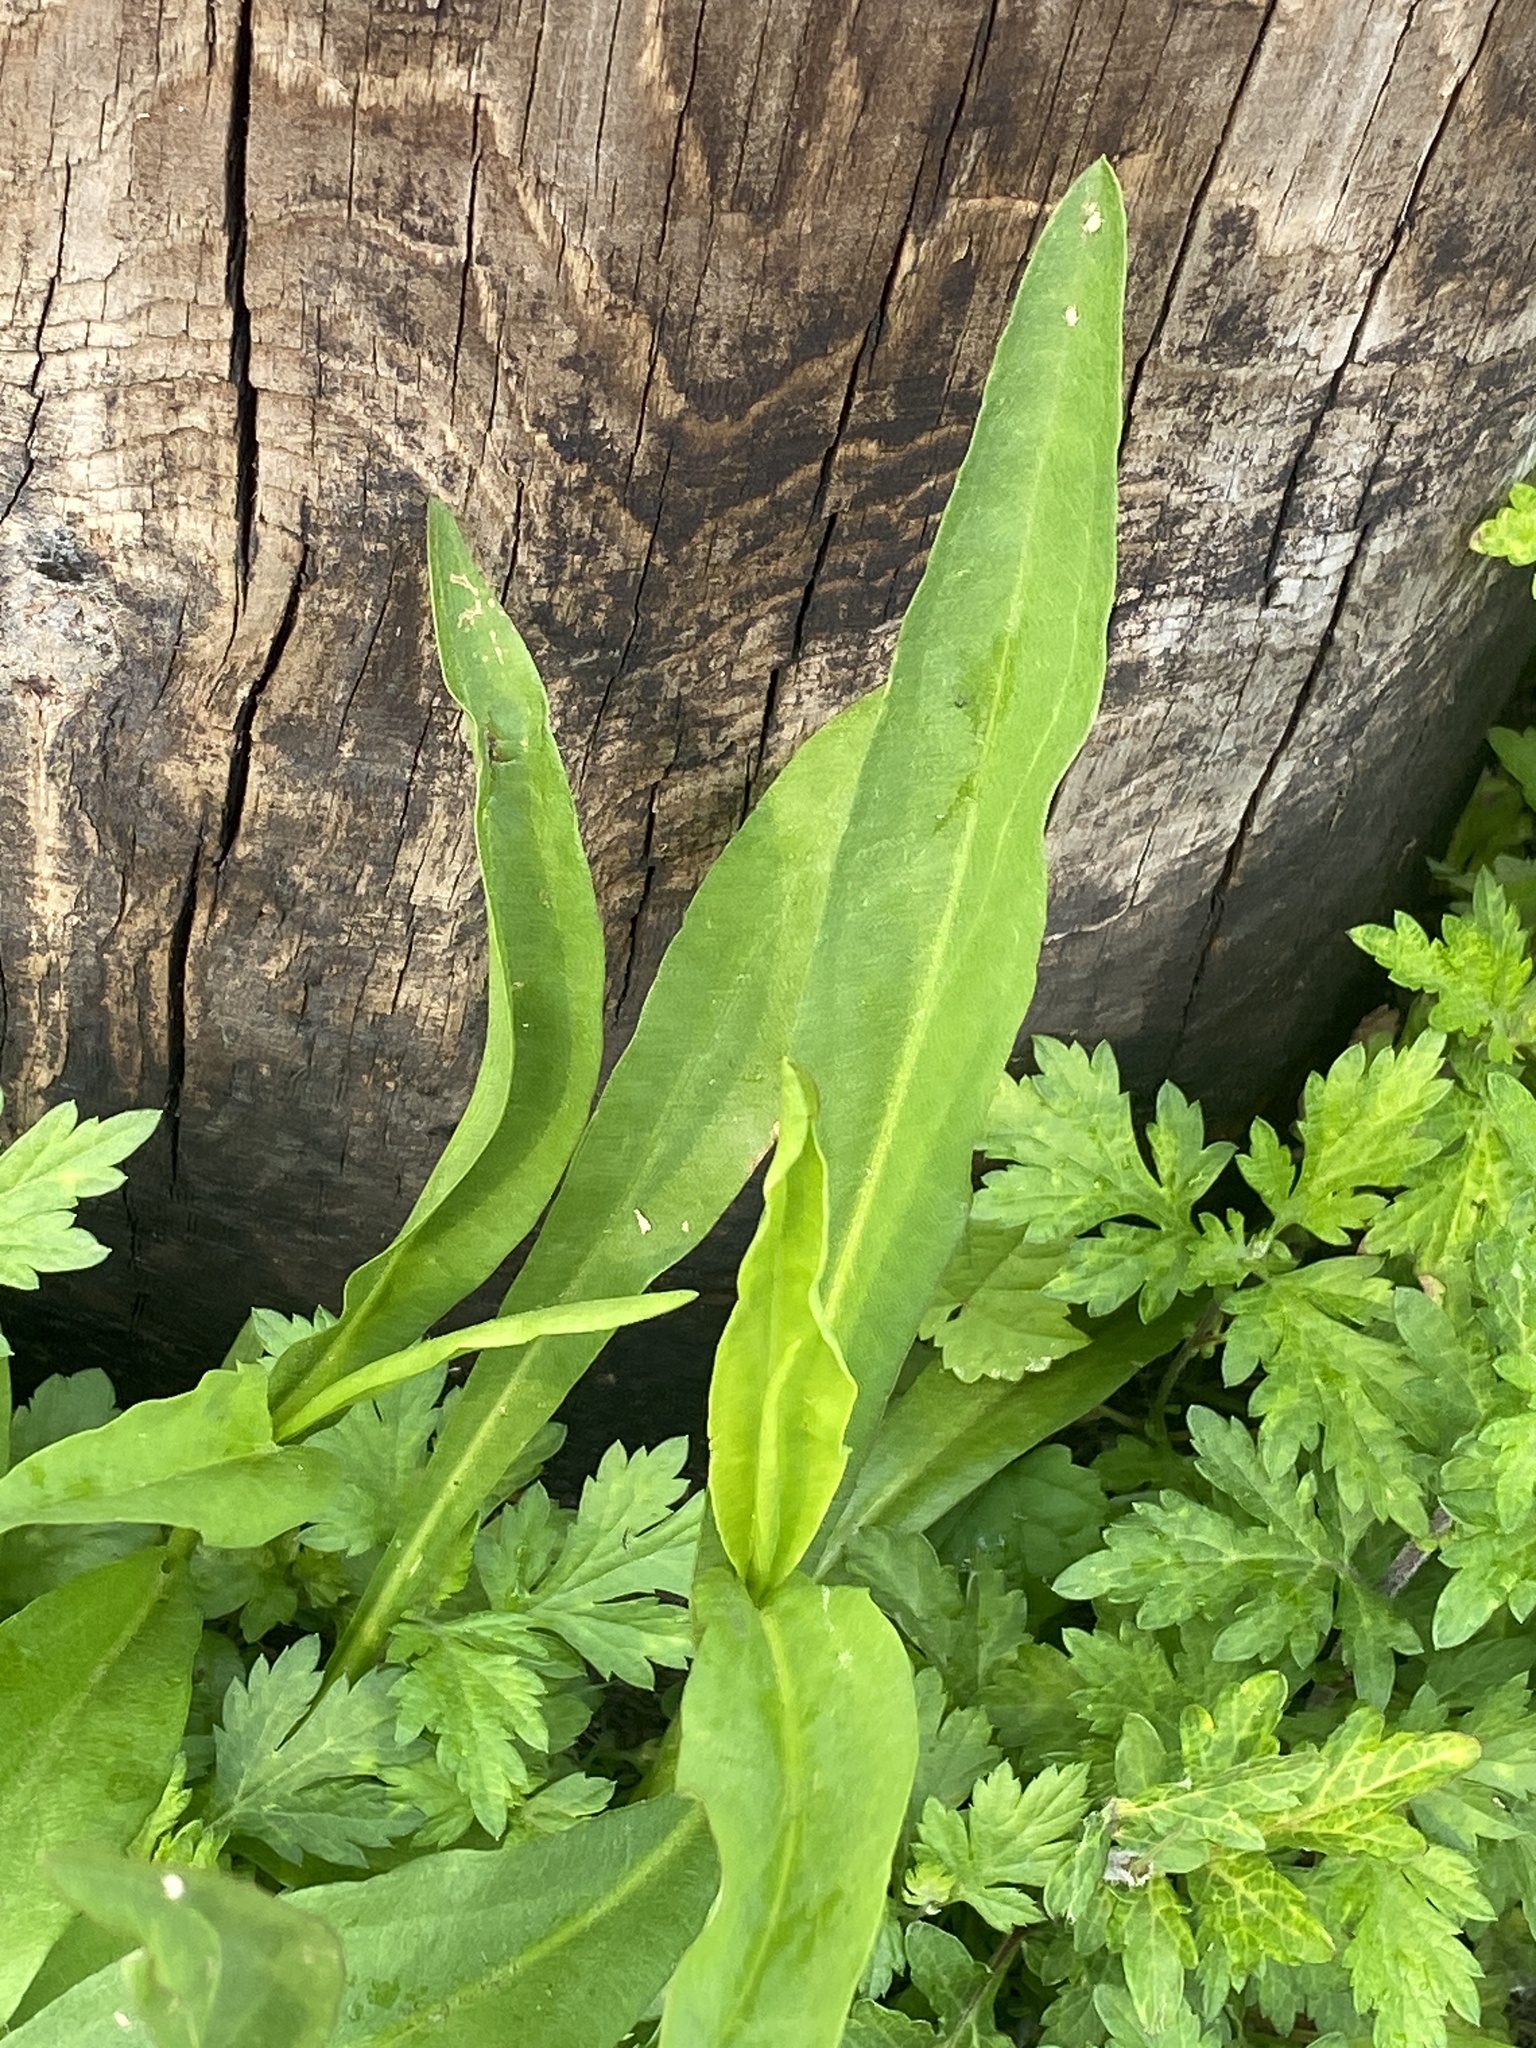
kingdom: Plantae
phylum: Tracheophyta
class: Magnoliopsida
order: Asterales
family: Asteraceae
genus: Solidago
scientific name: Solidago sempervirens
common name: Salt-marsh goldenrod
